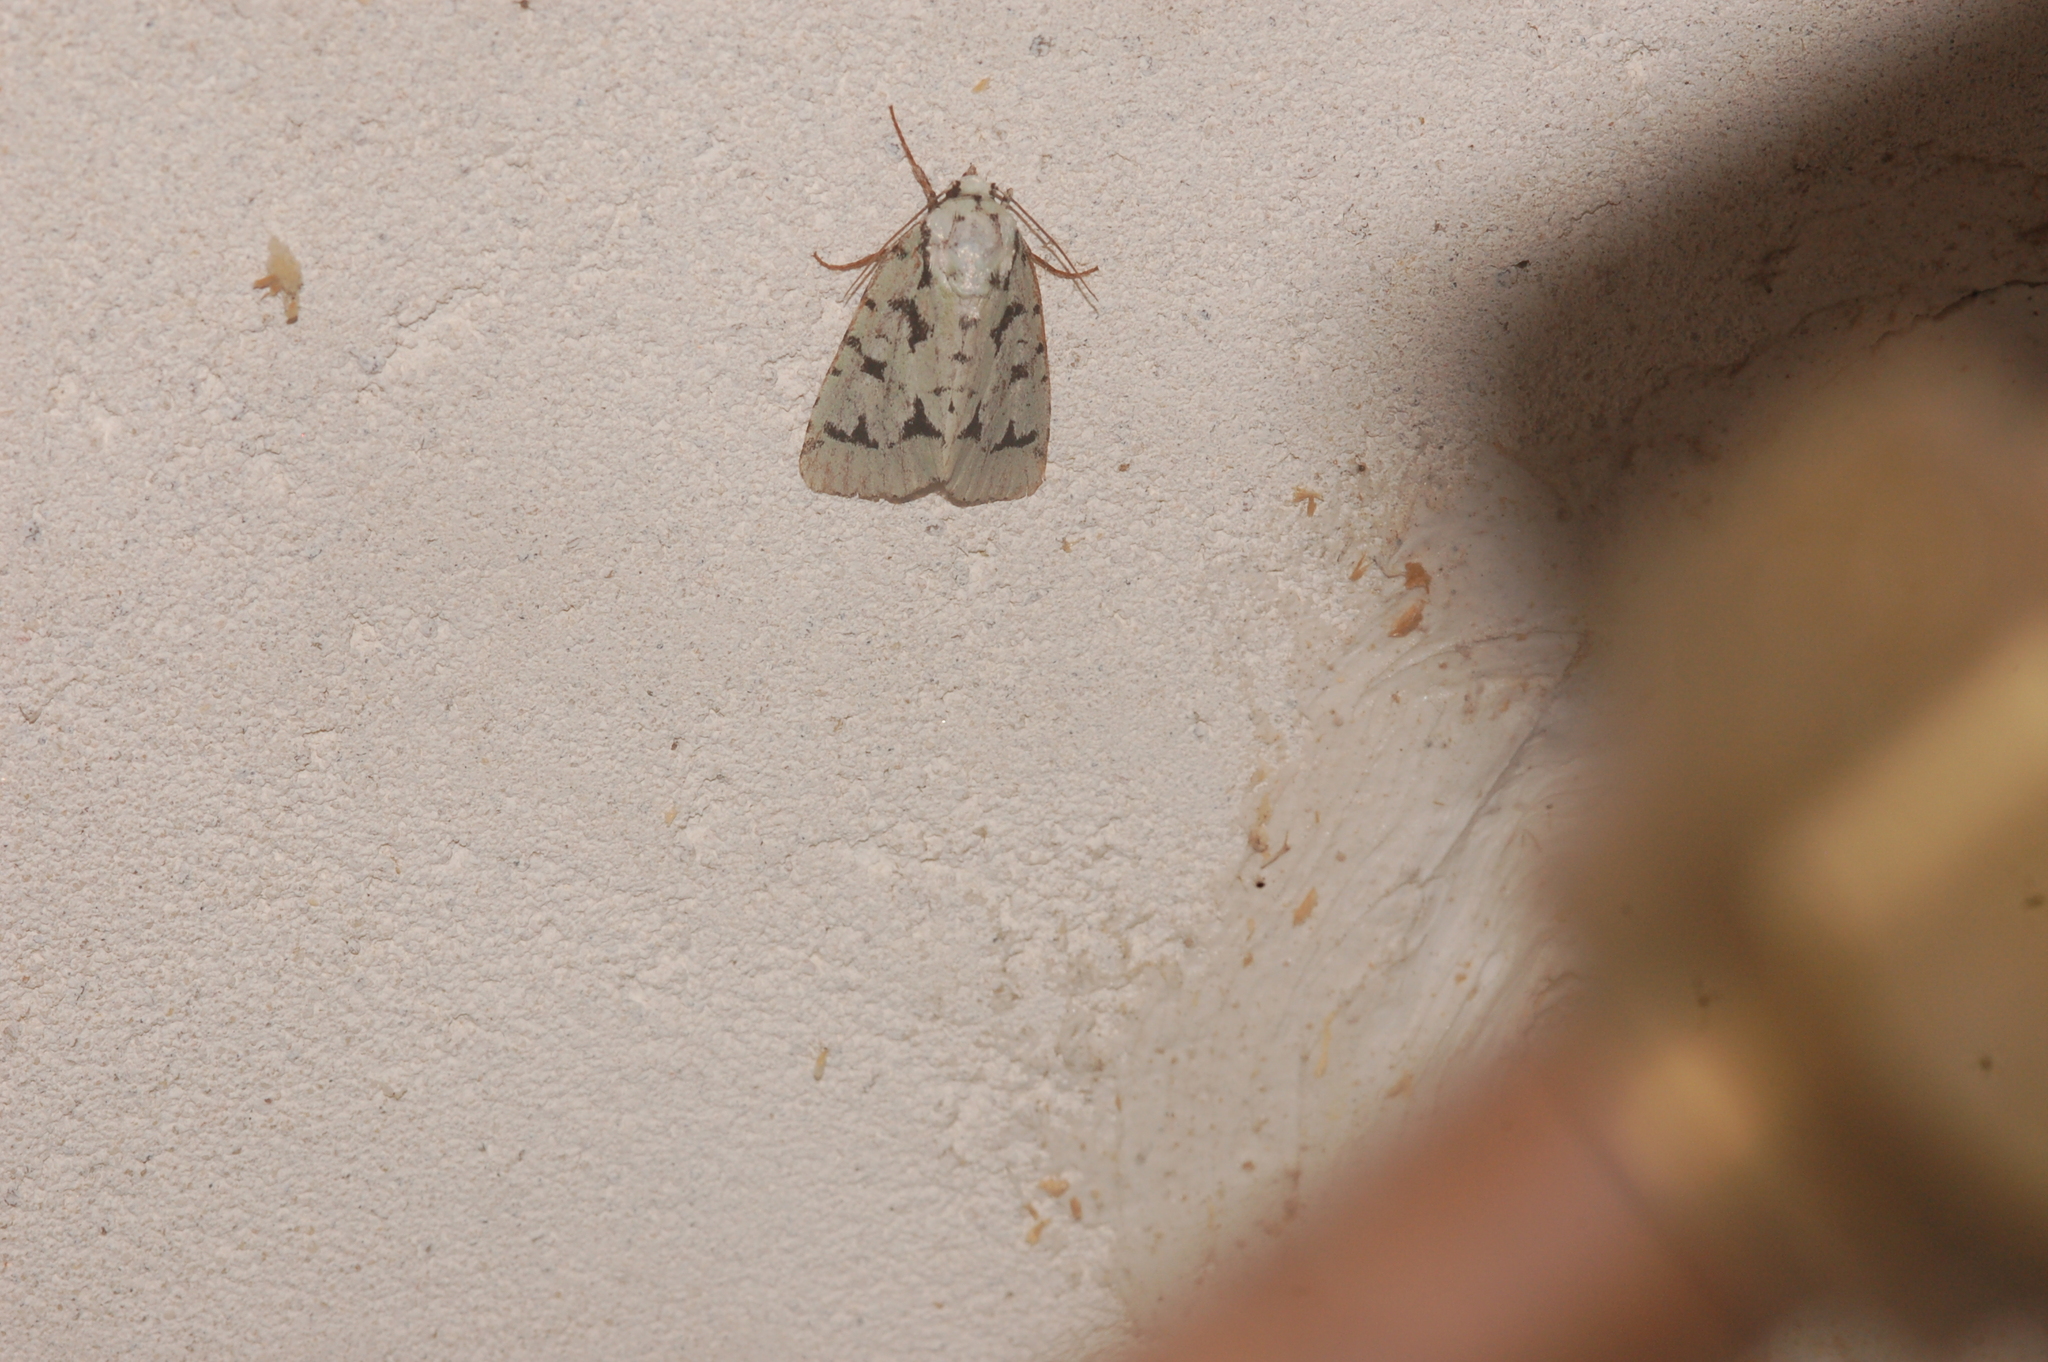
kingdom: Animalia
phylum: Arthropoda
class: Insecta
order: Lepidoptera
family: Noctuidae
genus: Acronicta
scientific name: Acronicta fallax
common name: Green marvel
